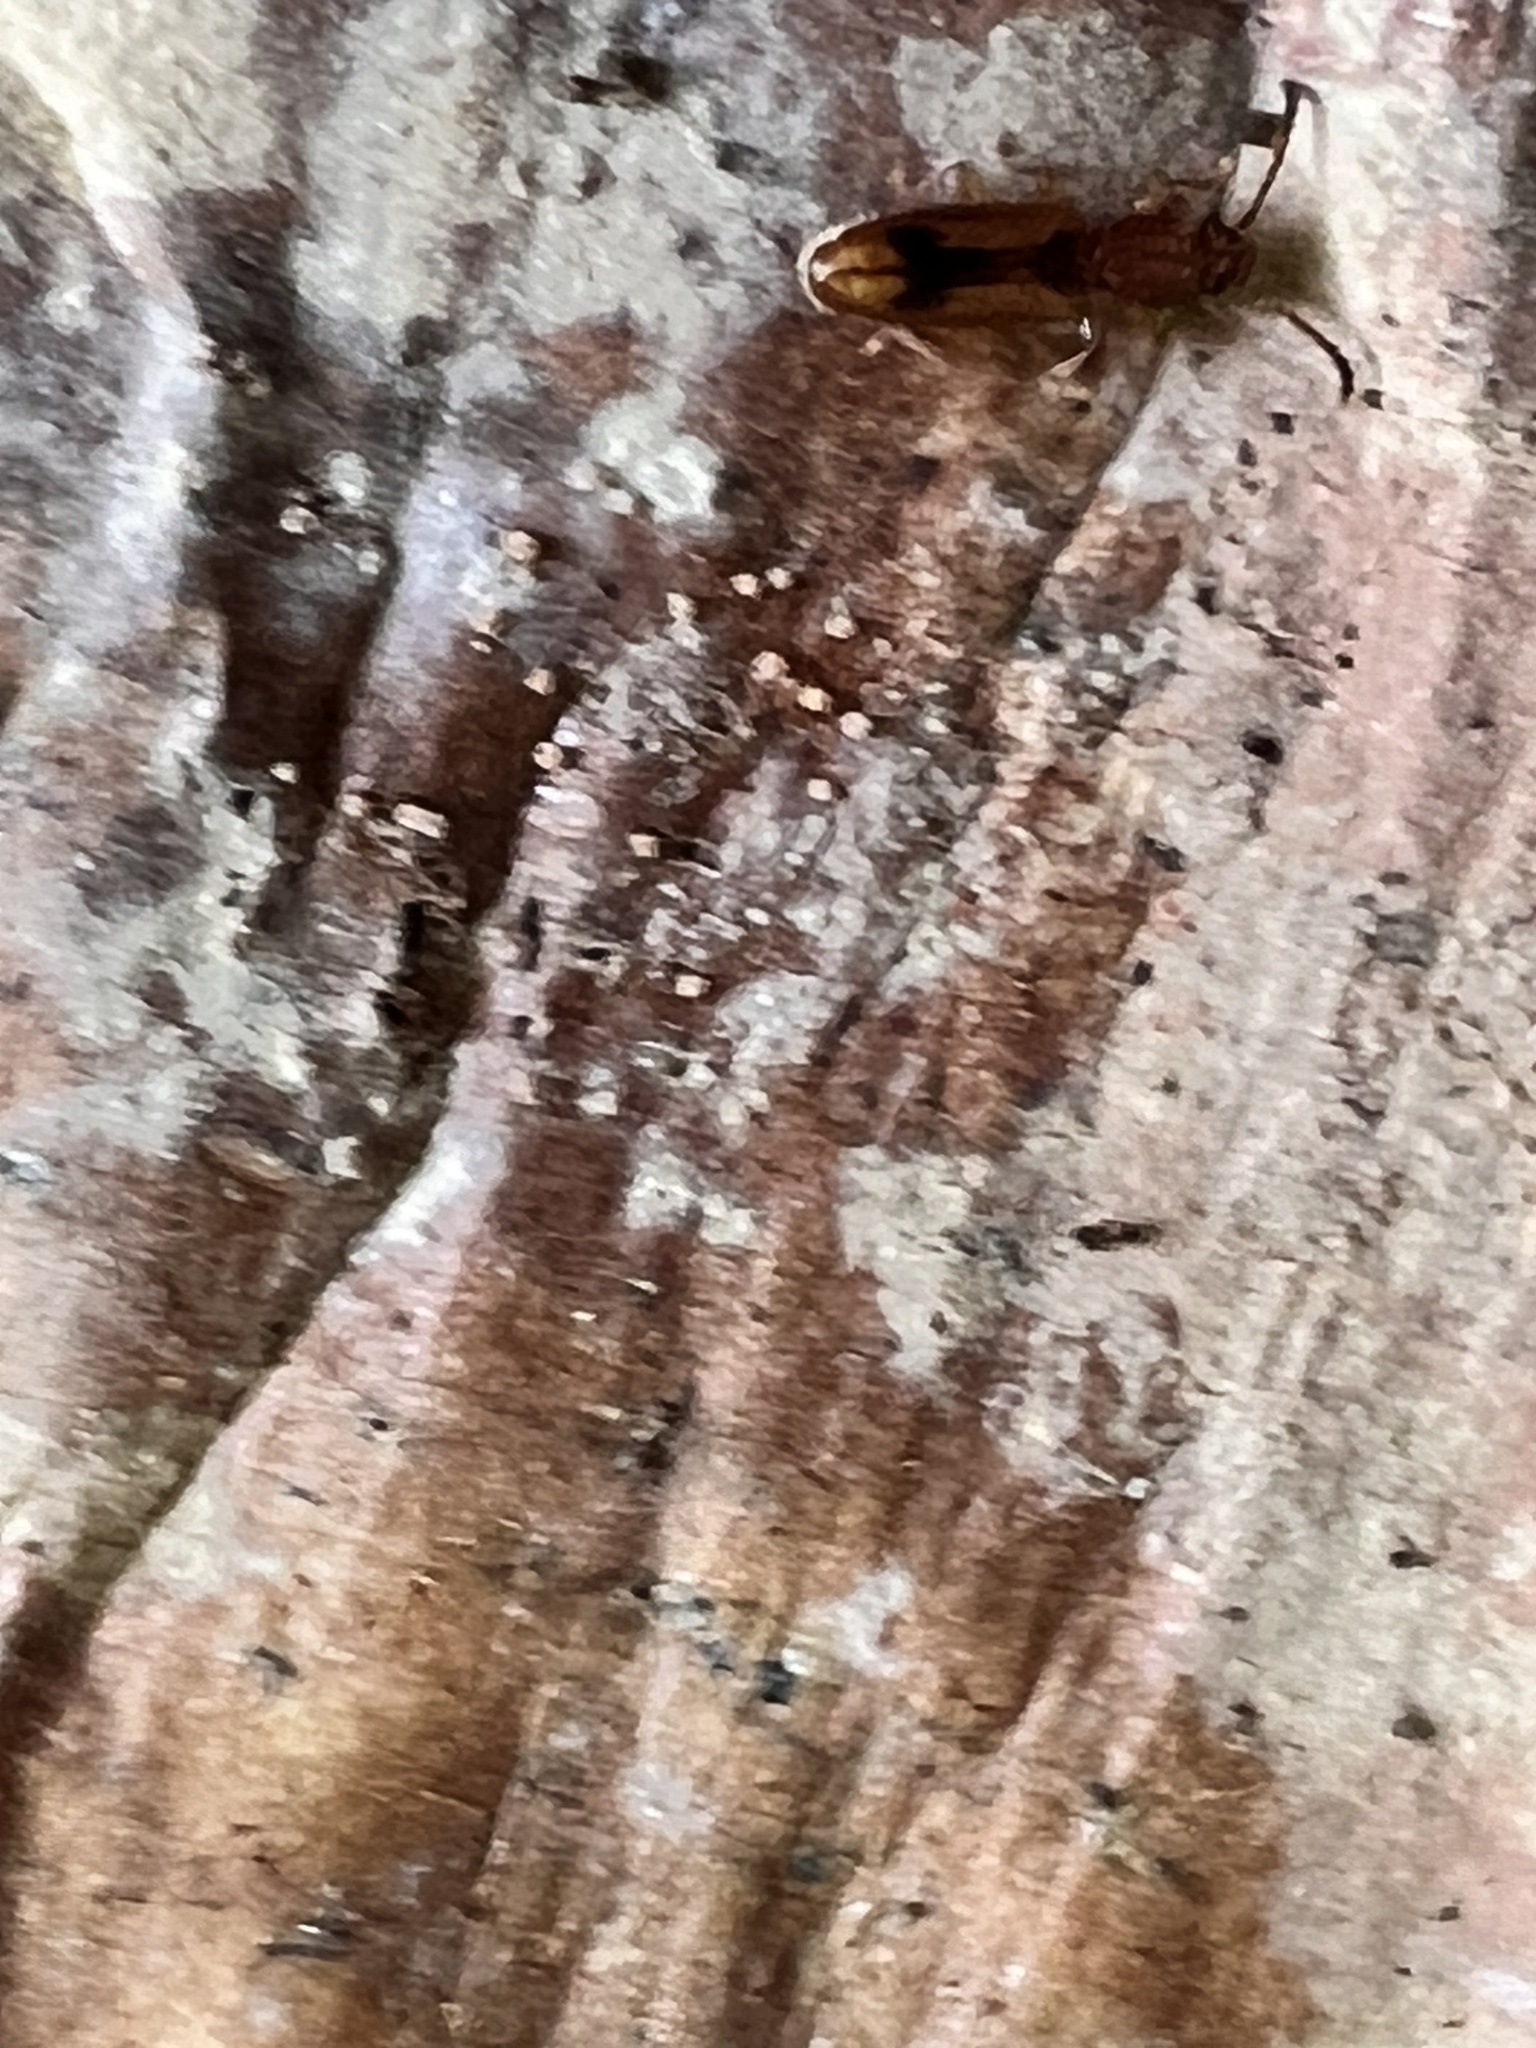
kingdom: Animalia
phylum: Arthropoda
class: Insecta
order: Coleoptera
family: Silvanidae
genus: Cryptamorpha
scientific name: Cryptamorpha desjardinsi
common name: Cryptamorpha
